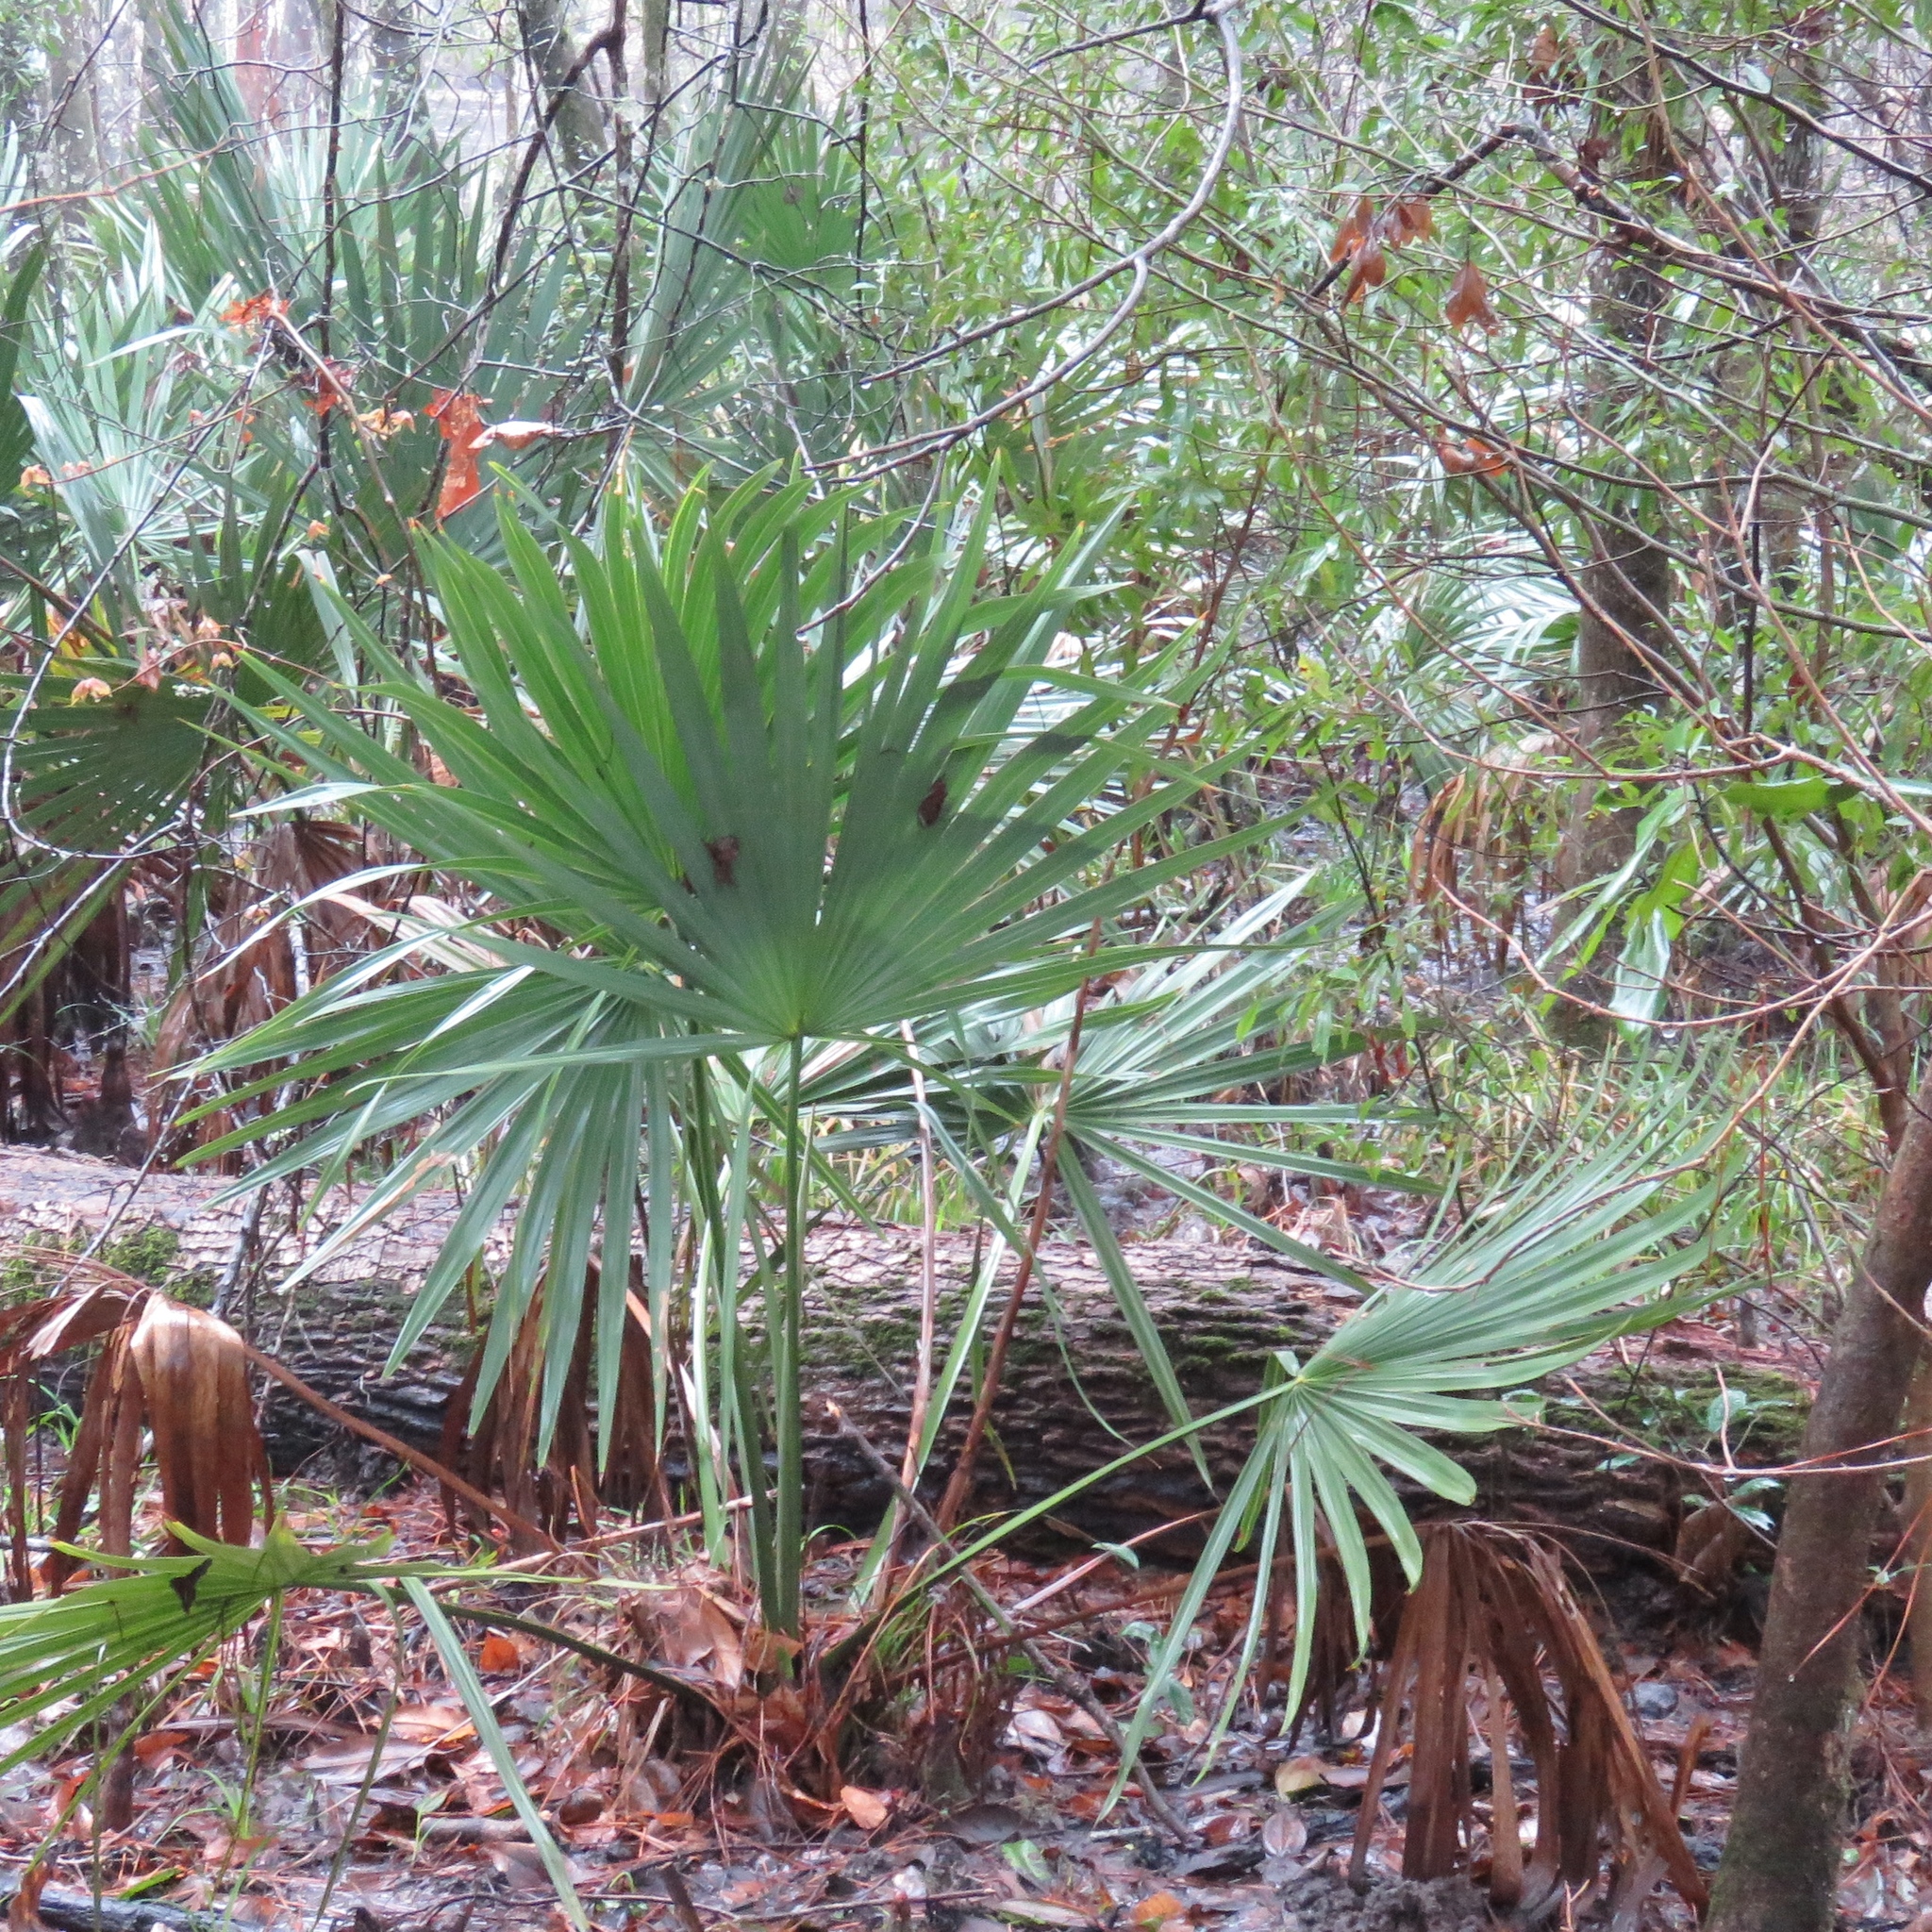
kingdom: Plantae
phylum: Tracheophyta
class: Liliopsida
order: Arecales
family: Arecaceae
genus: Sabal
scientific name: Sabal minor
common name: Dwarf palmetto
